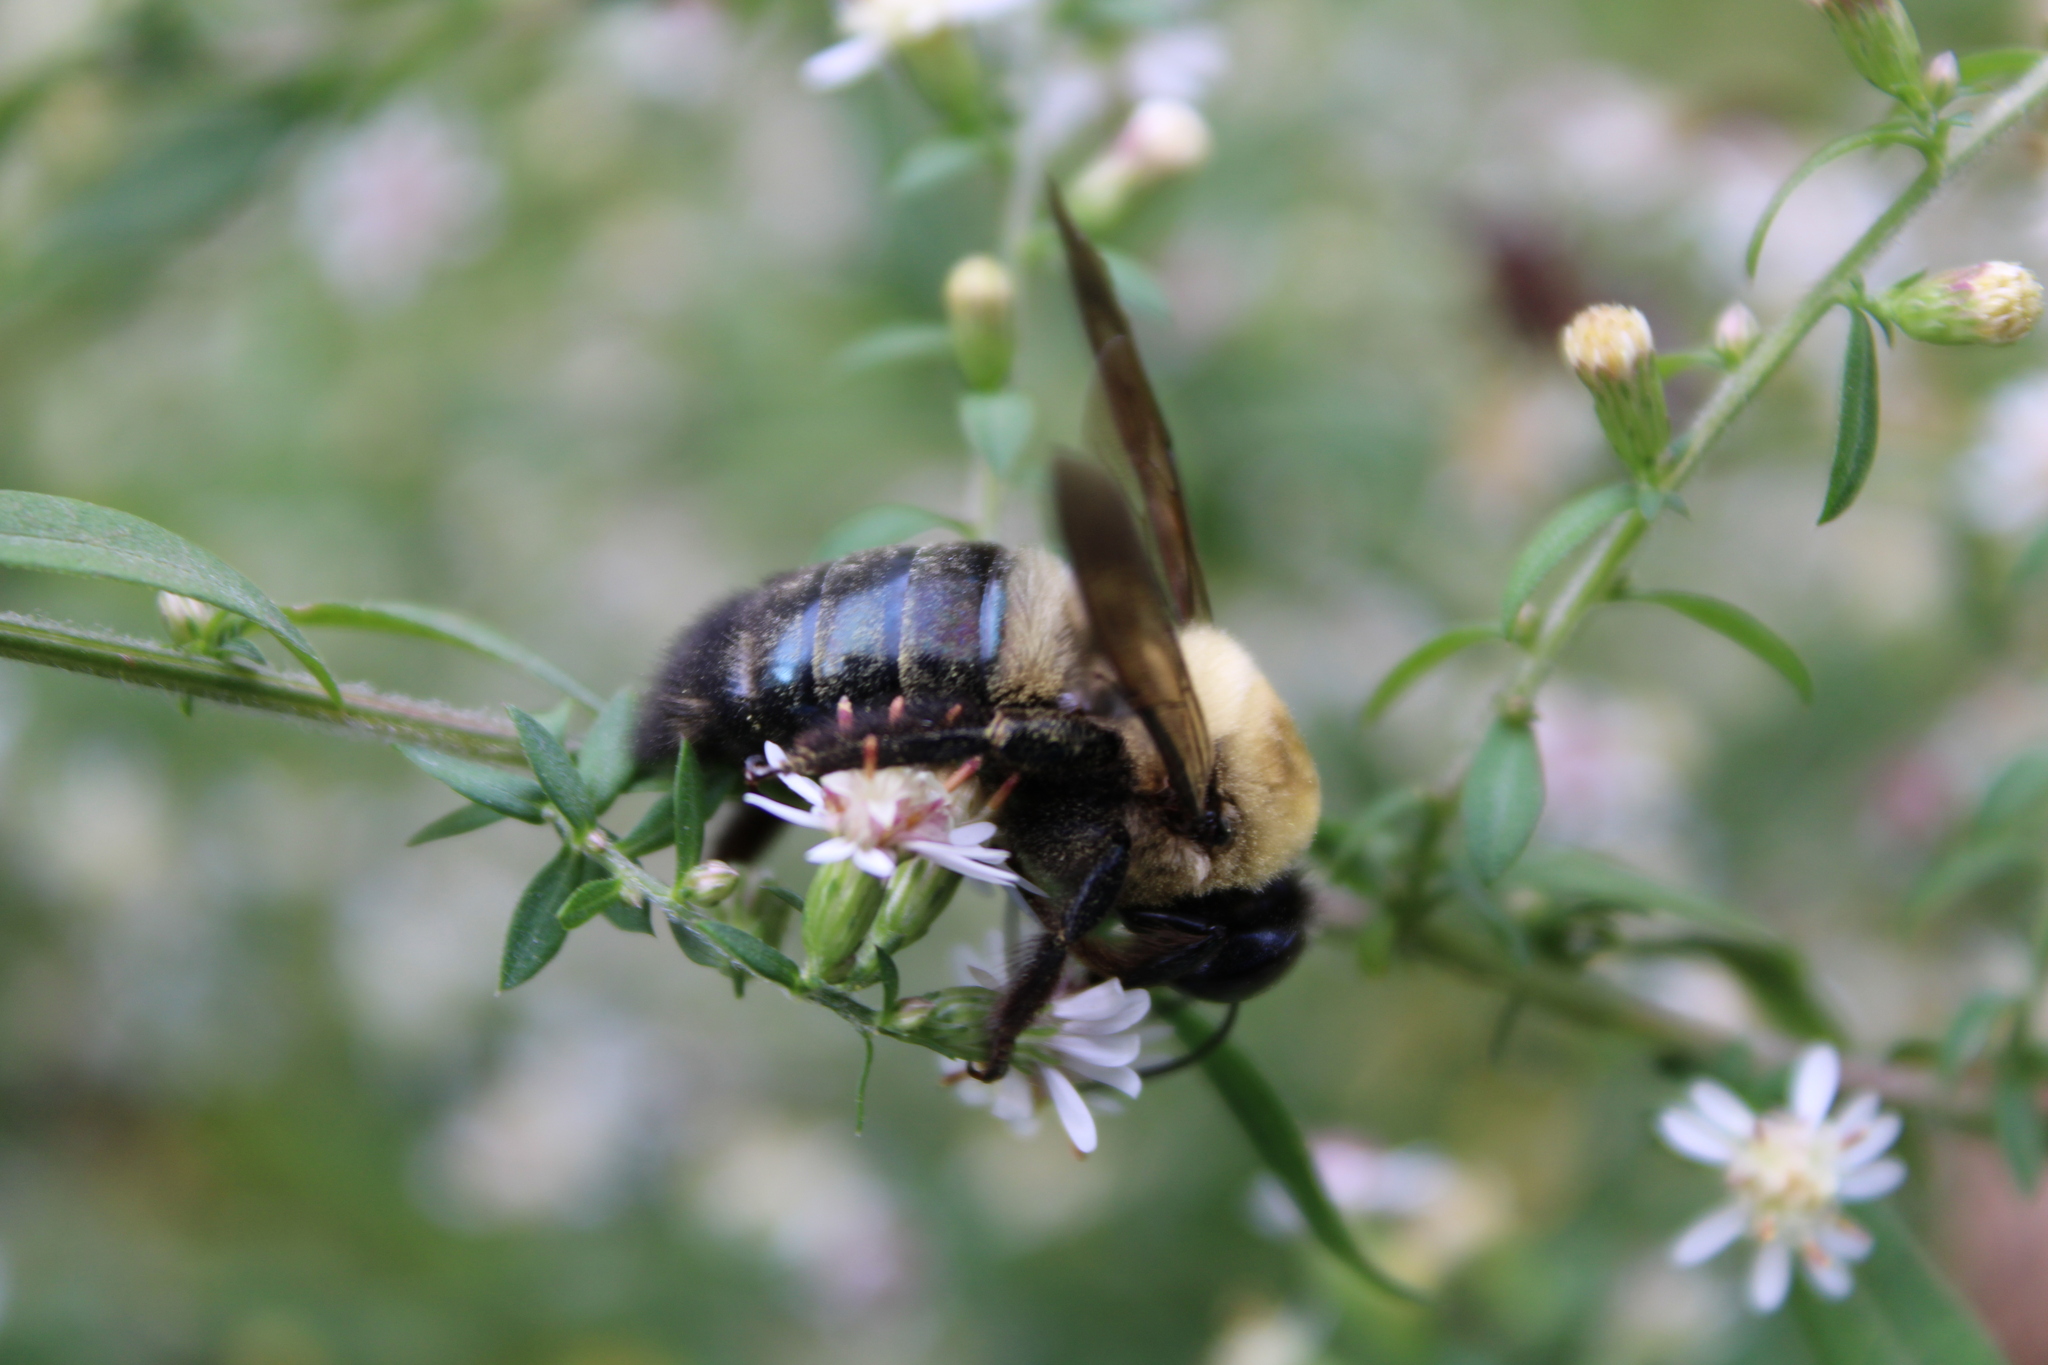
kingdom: Animalia
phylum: Arthropoda
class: Insecta
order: Hymenoptera
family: Apidae
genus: Xylocopa
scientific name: Xylocopa virginica
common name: Carpenter bee
